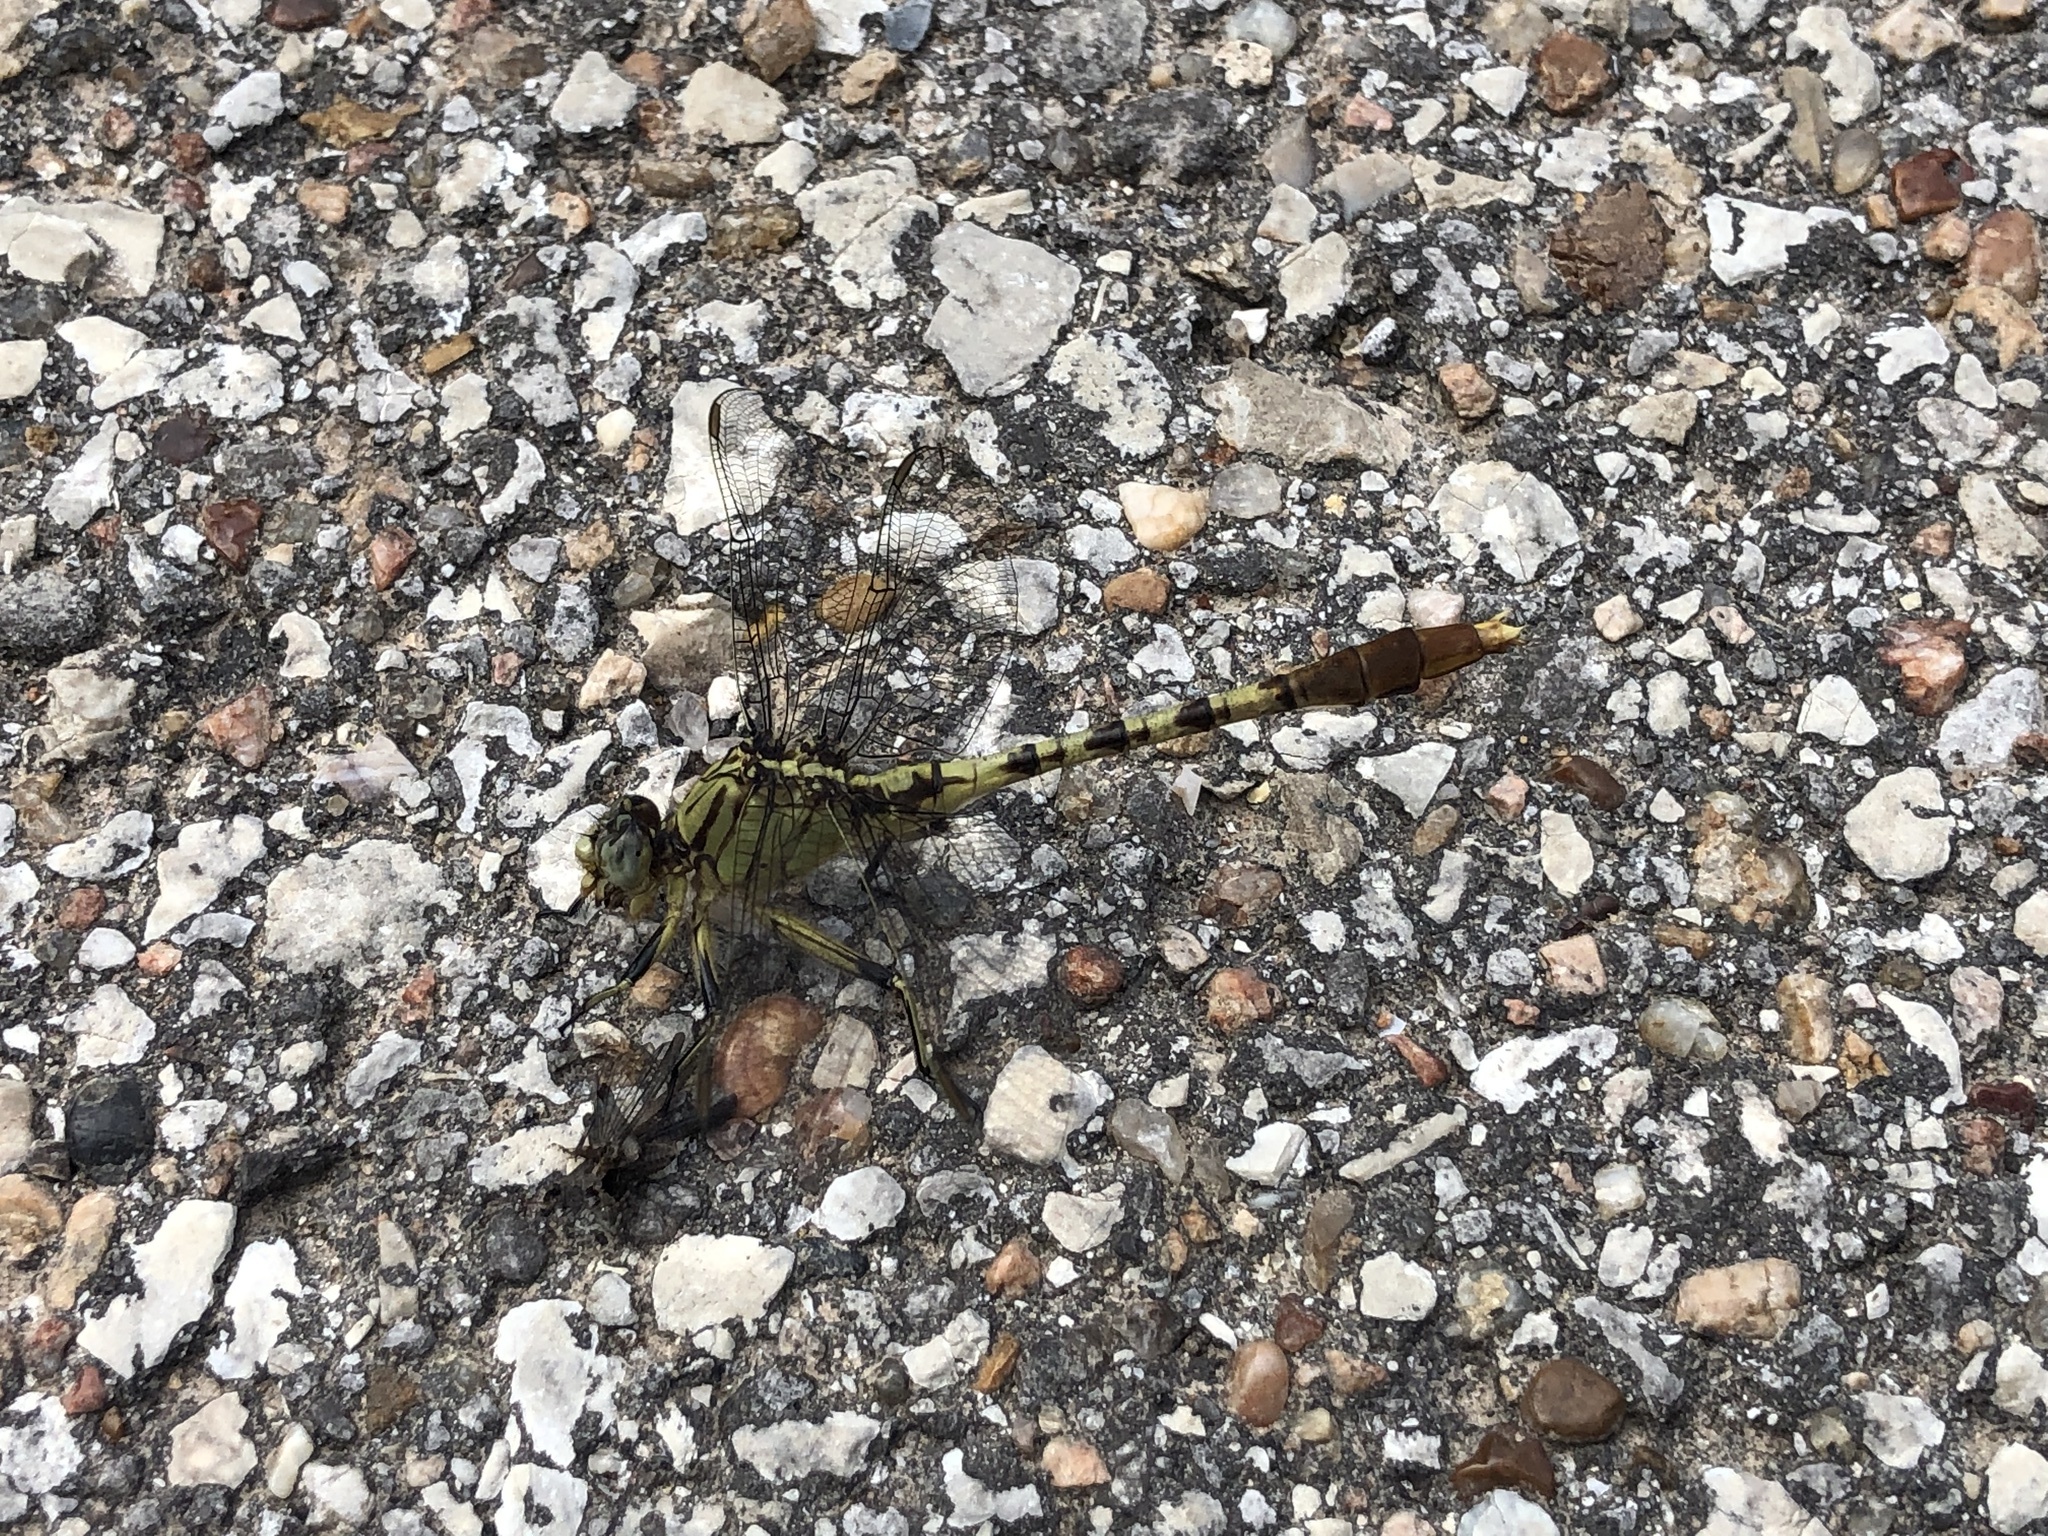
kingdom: Animalia
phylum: Arthropoda
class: Insecta
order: Odonata
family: Gomphidae
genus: Arigomphus
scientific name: Arigomphus submedianus
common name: Jade clubtail
